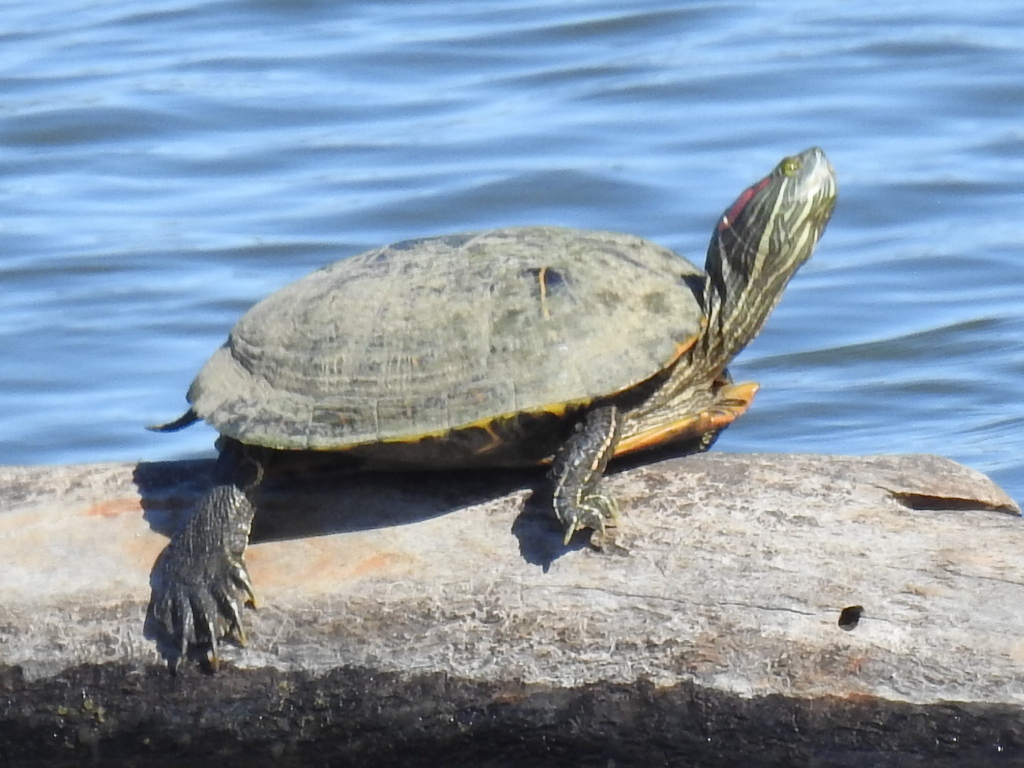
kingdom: Animalia
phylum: Chordata
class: Testudines
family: Emydidae
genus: Trachemys
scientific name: Trachemys scripta
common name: Slider
